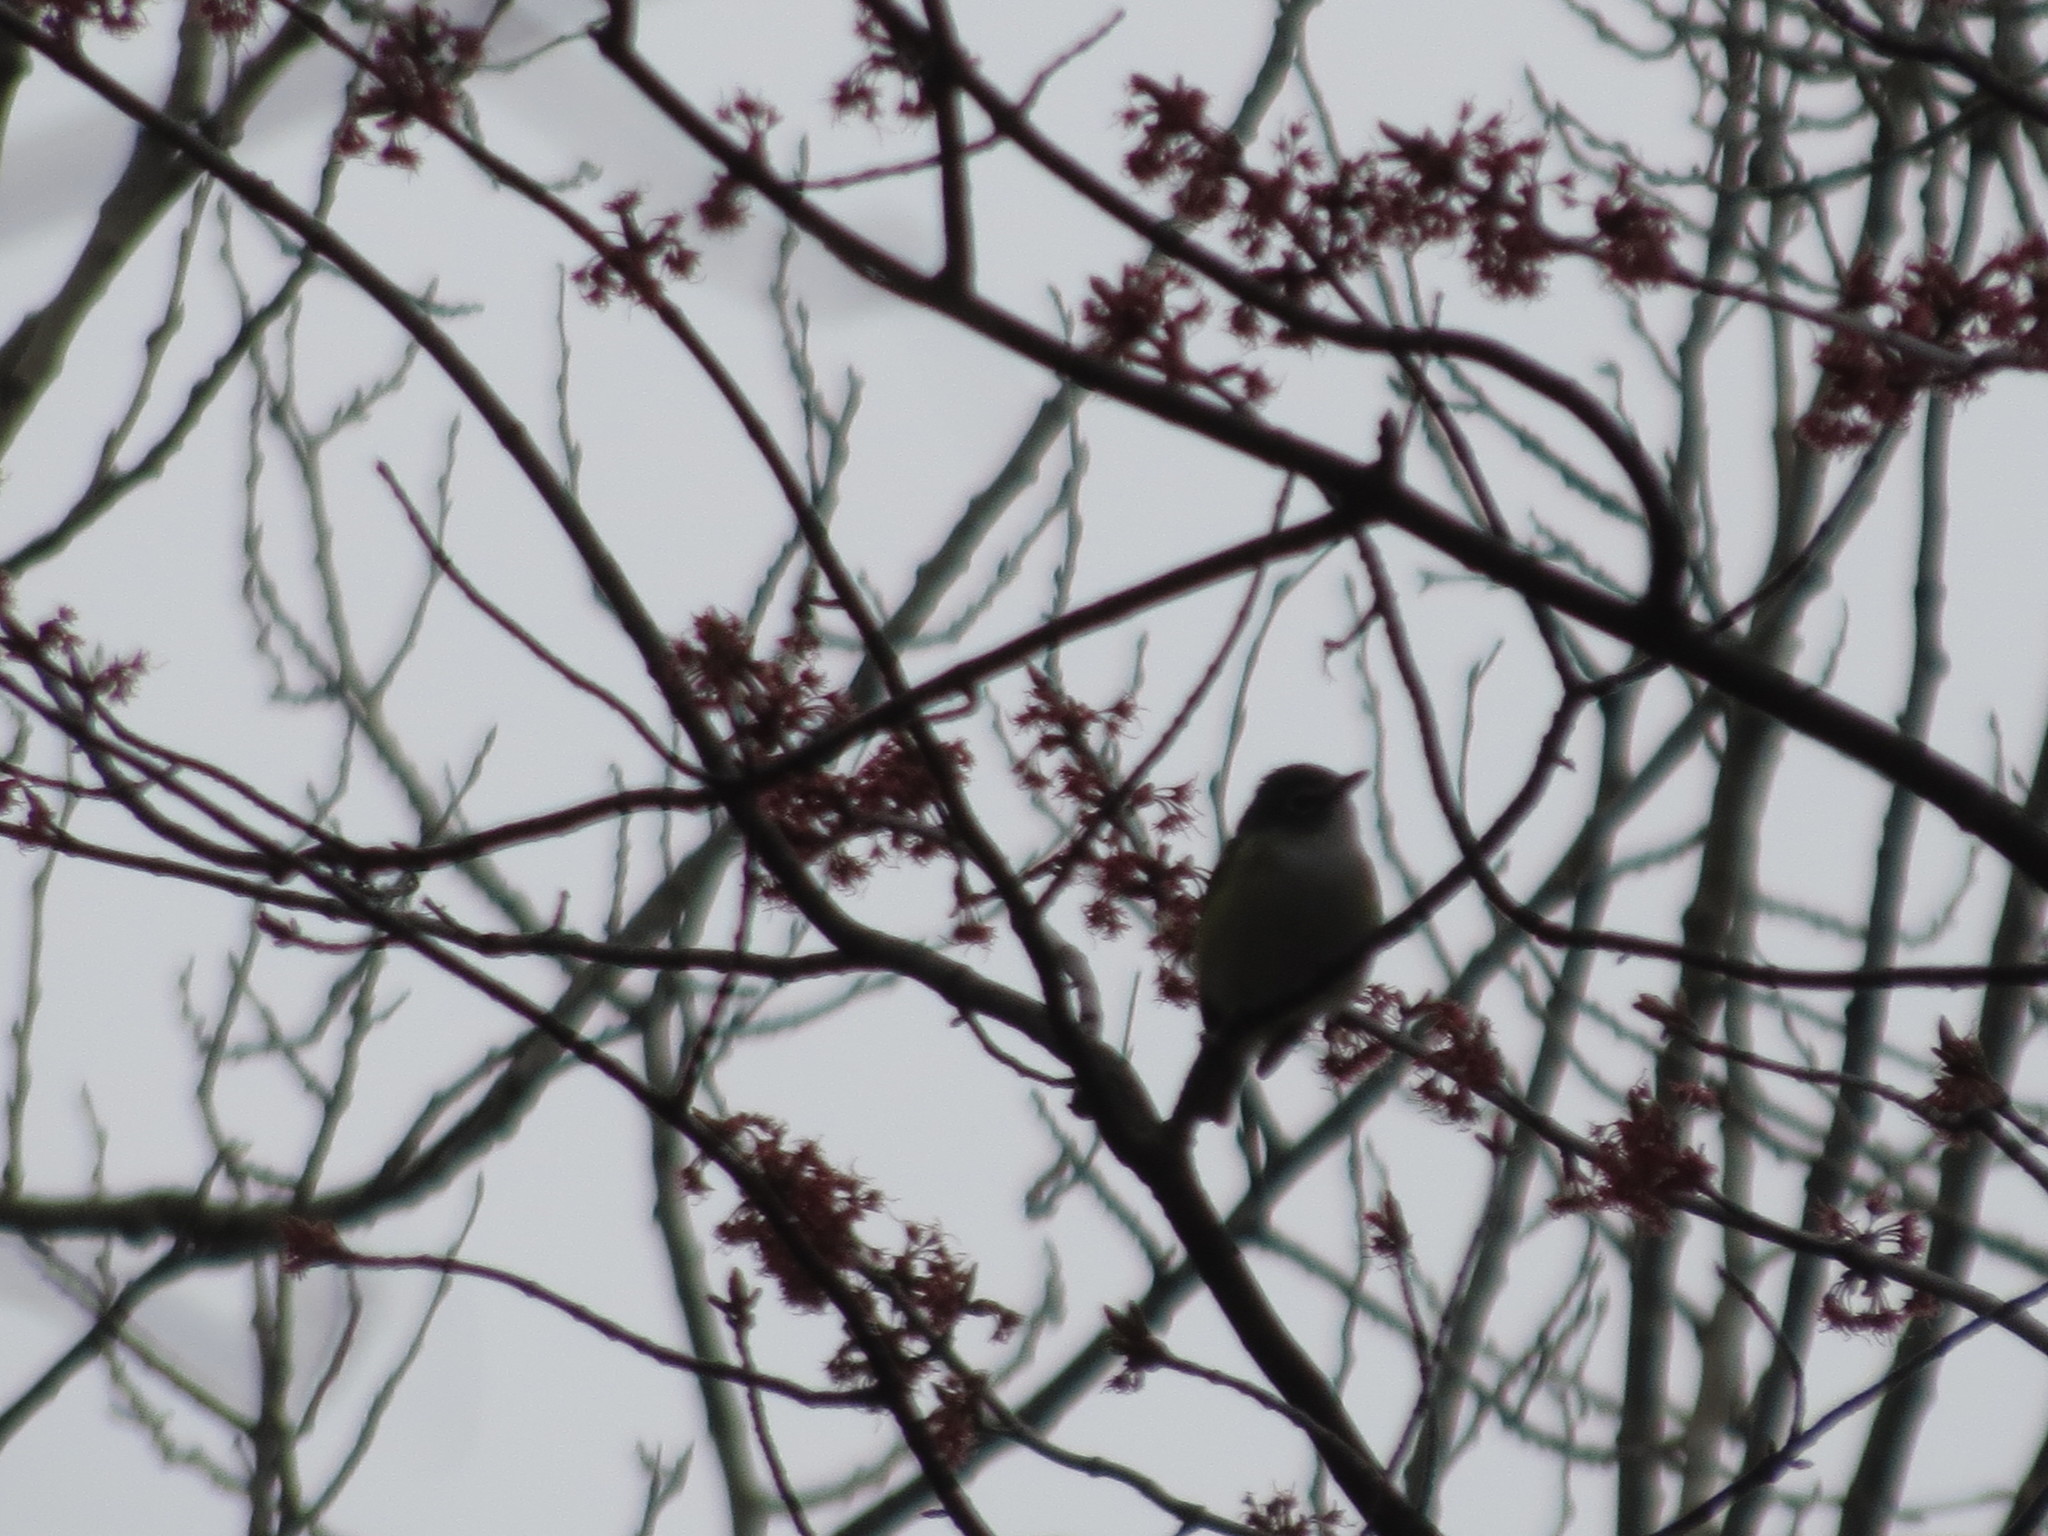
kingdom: Animalia
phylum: Chordata
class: Aves
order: Passeriformes
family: Vireonidae
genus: Vireo
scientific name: Vireo solitarius
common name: Blue-headed vireo
